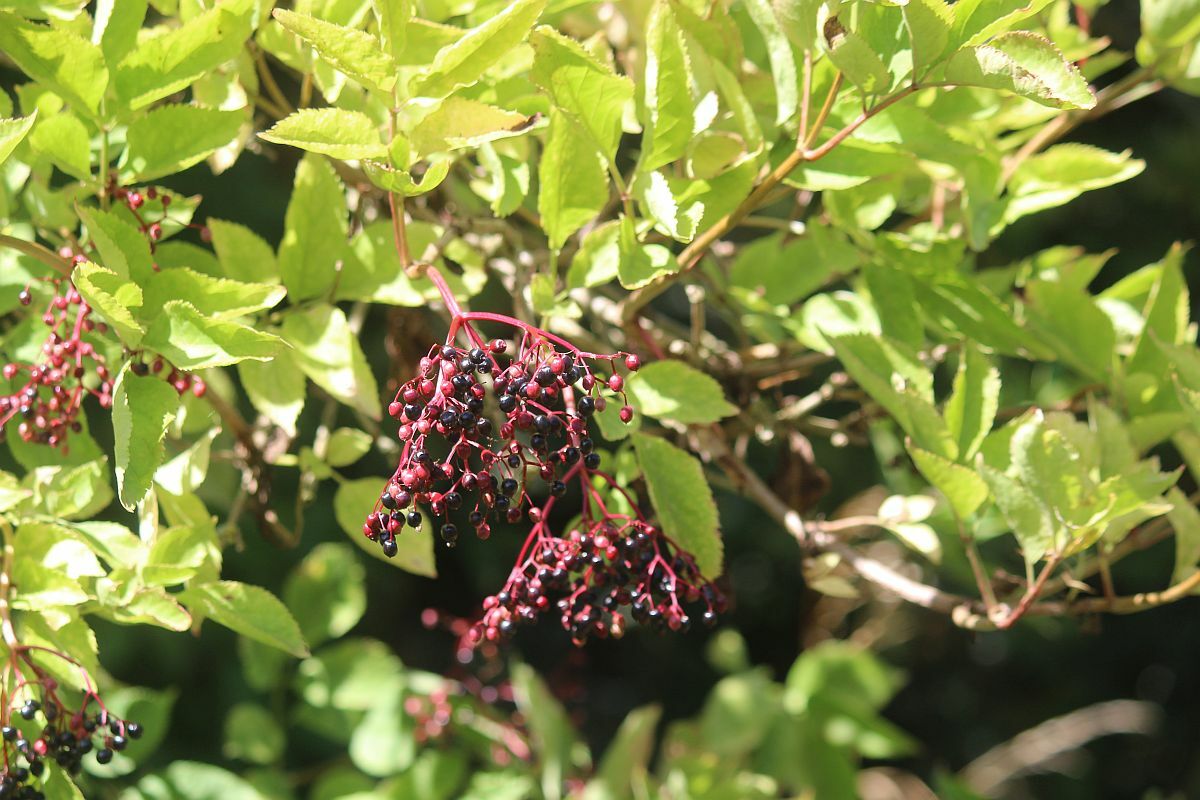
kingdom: Plantae
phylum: Tracheophyta
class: Magnoliopsida
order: Dipsacales
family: Viburnaceae
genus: Sambucus
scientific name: Sambucus nigra
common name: Elder
